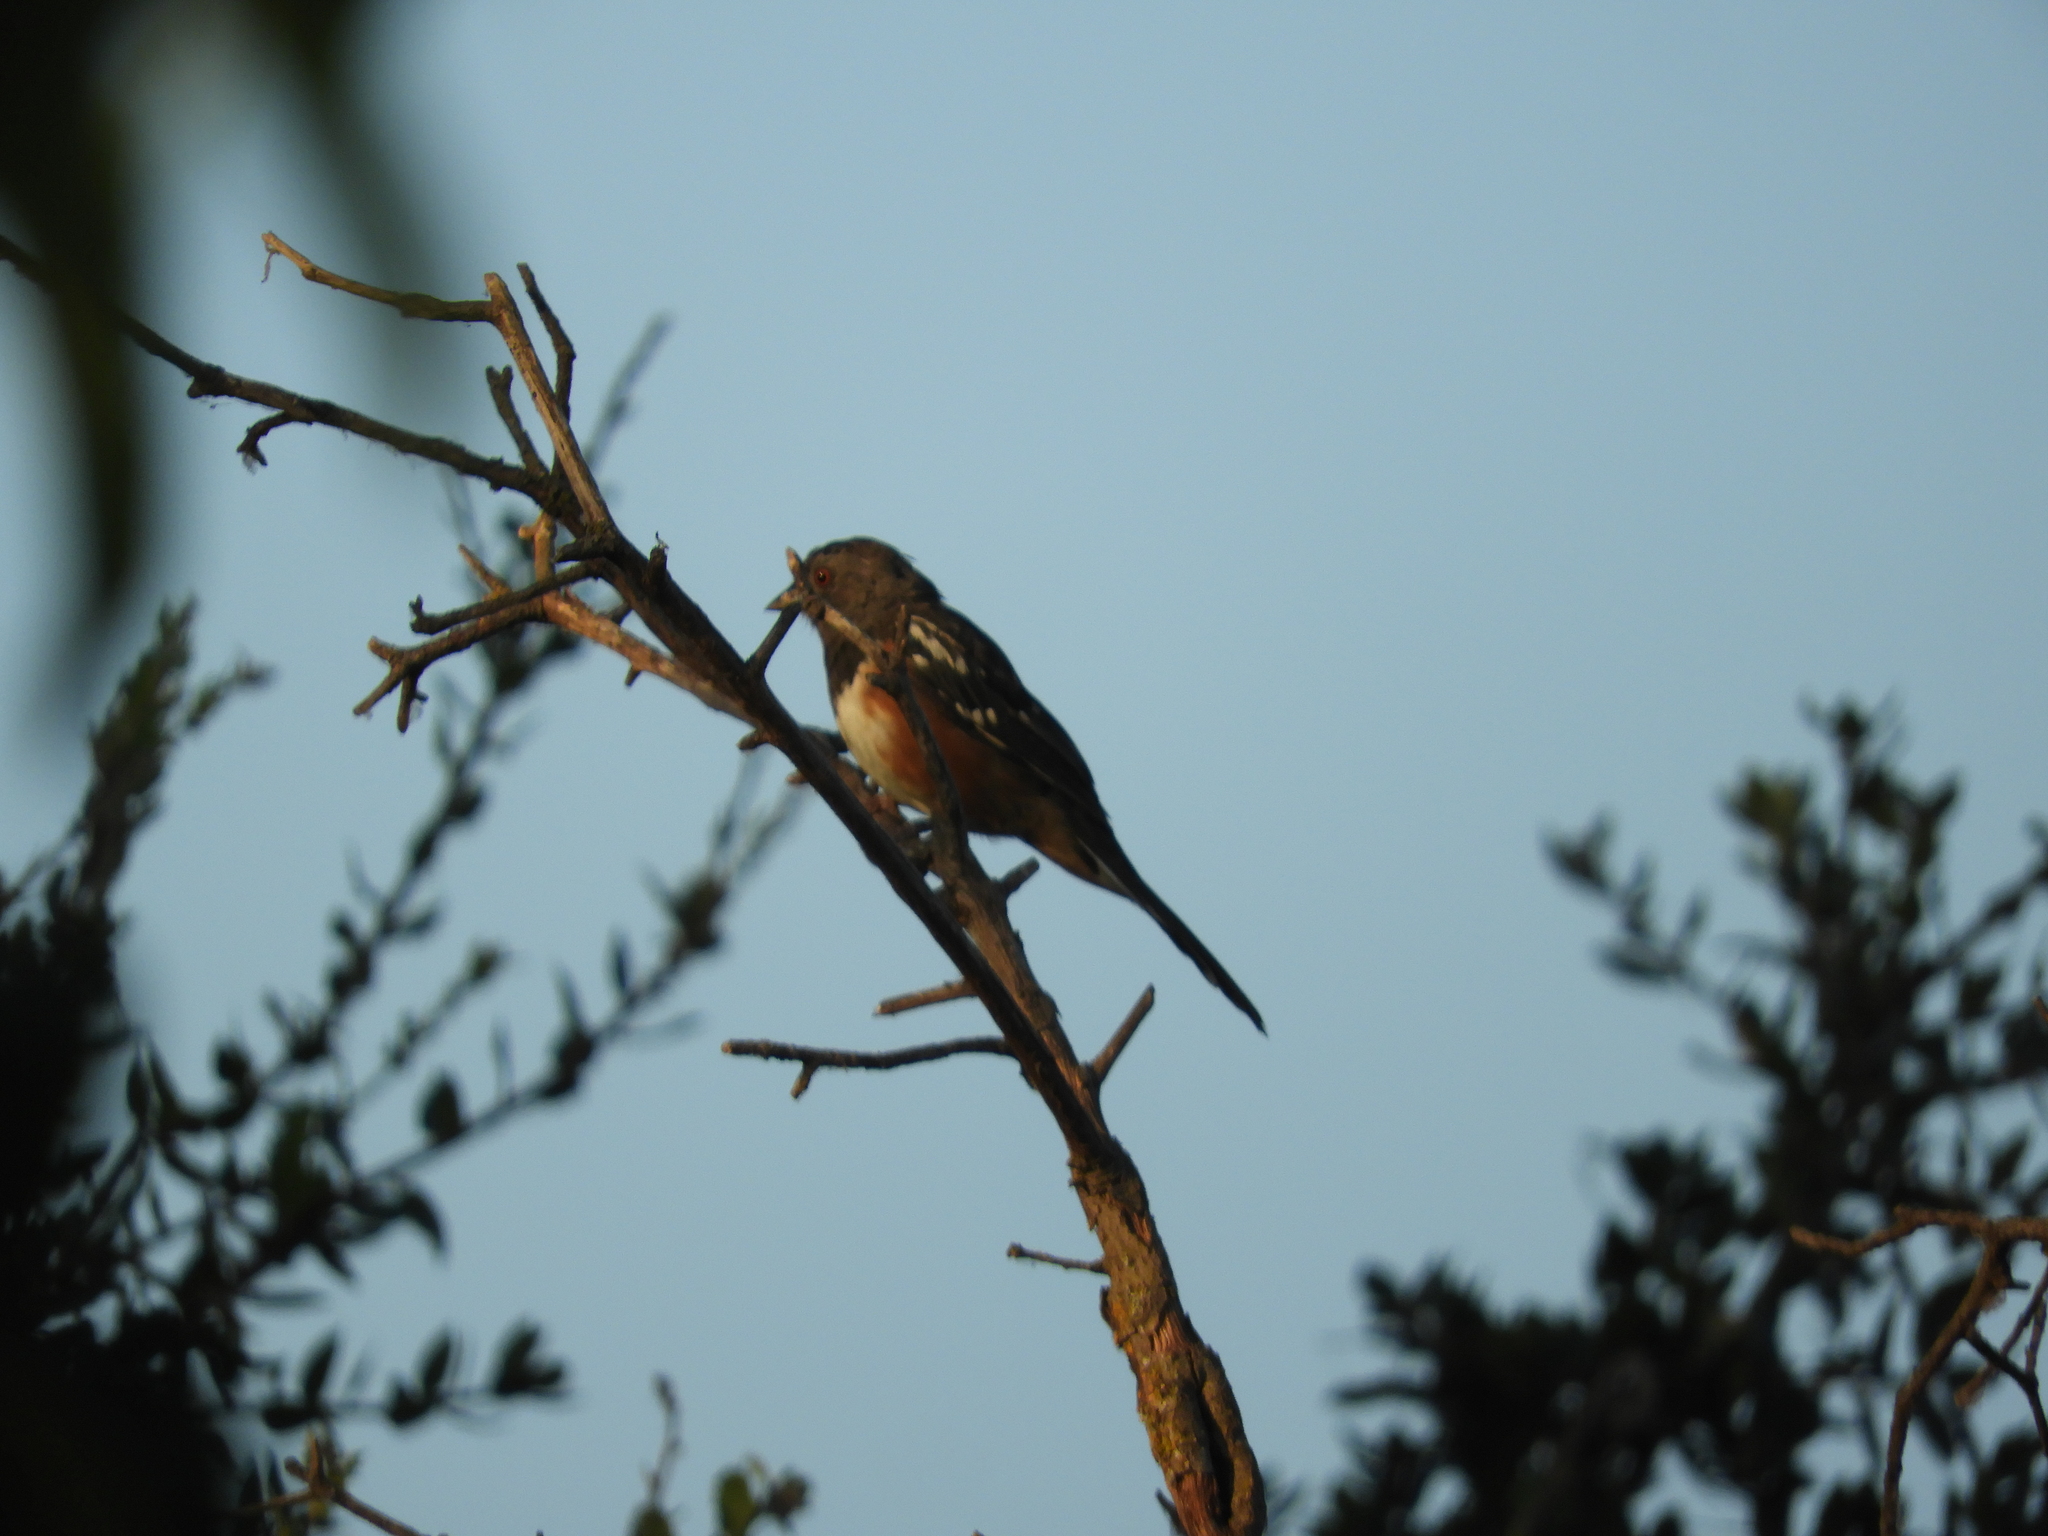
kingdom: Animalia
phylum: Chordata
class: Aves
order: Passeriformes
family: Passerellidae
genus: Pipilo
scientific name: Pipilo maculatus
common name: Spotted towhee
